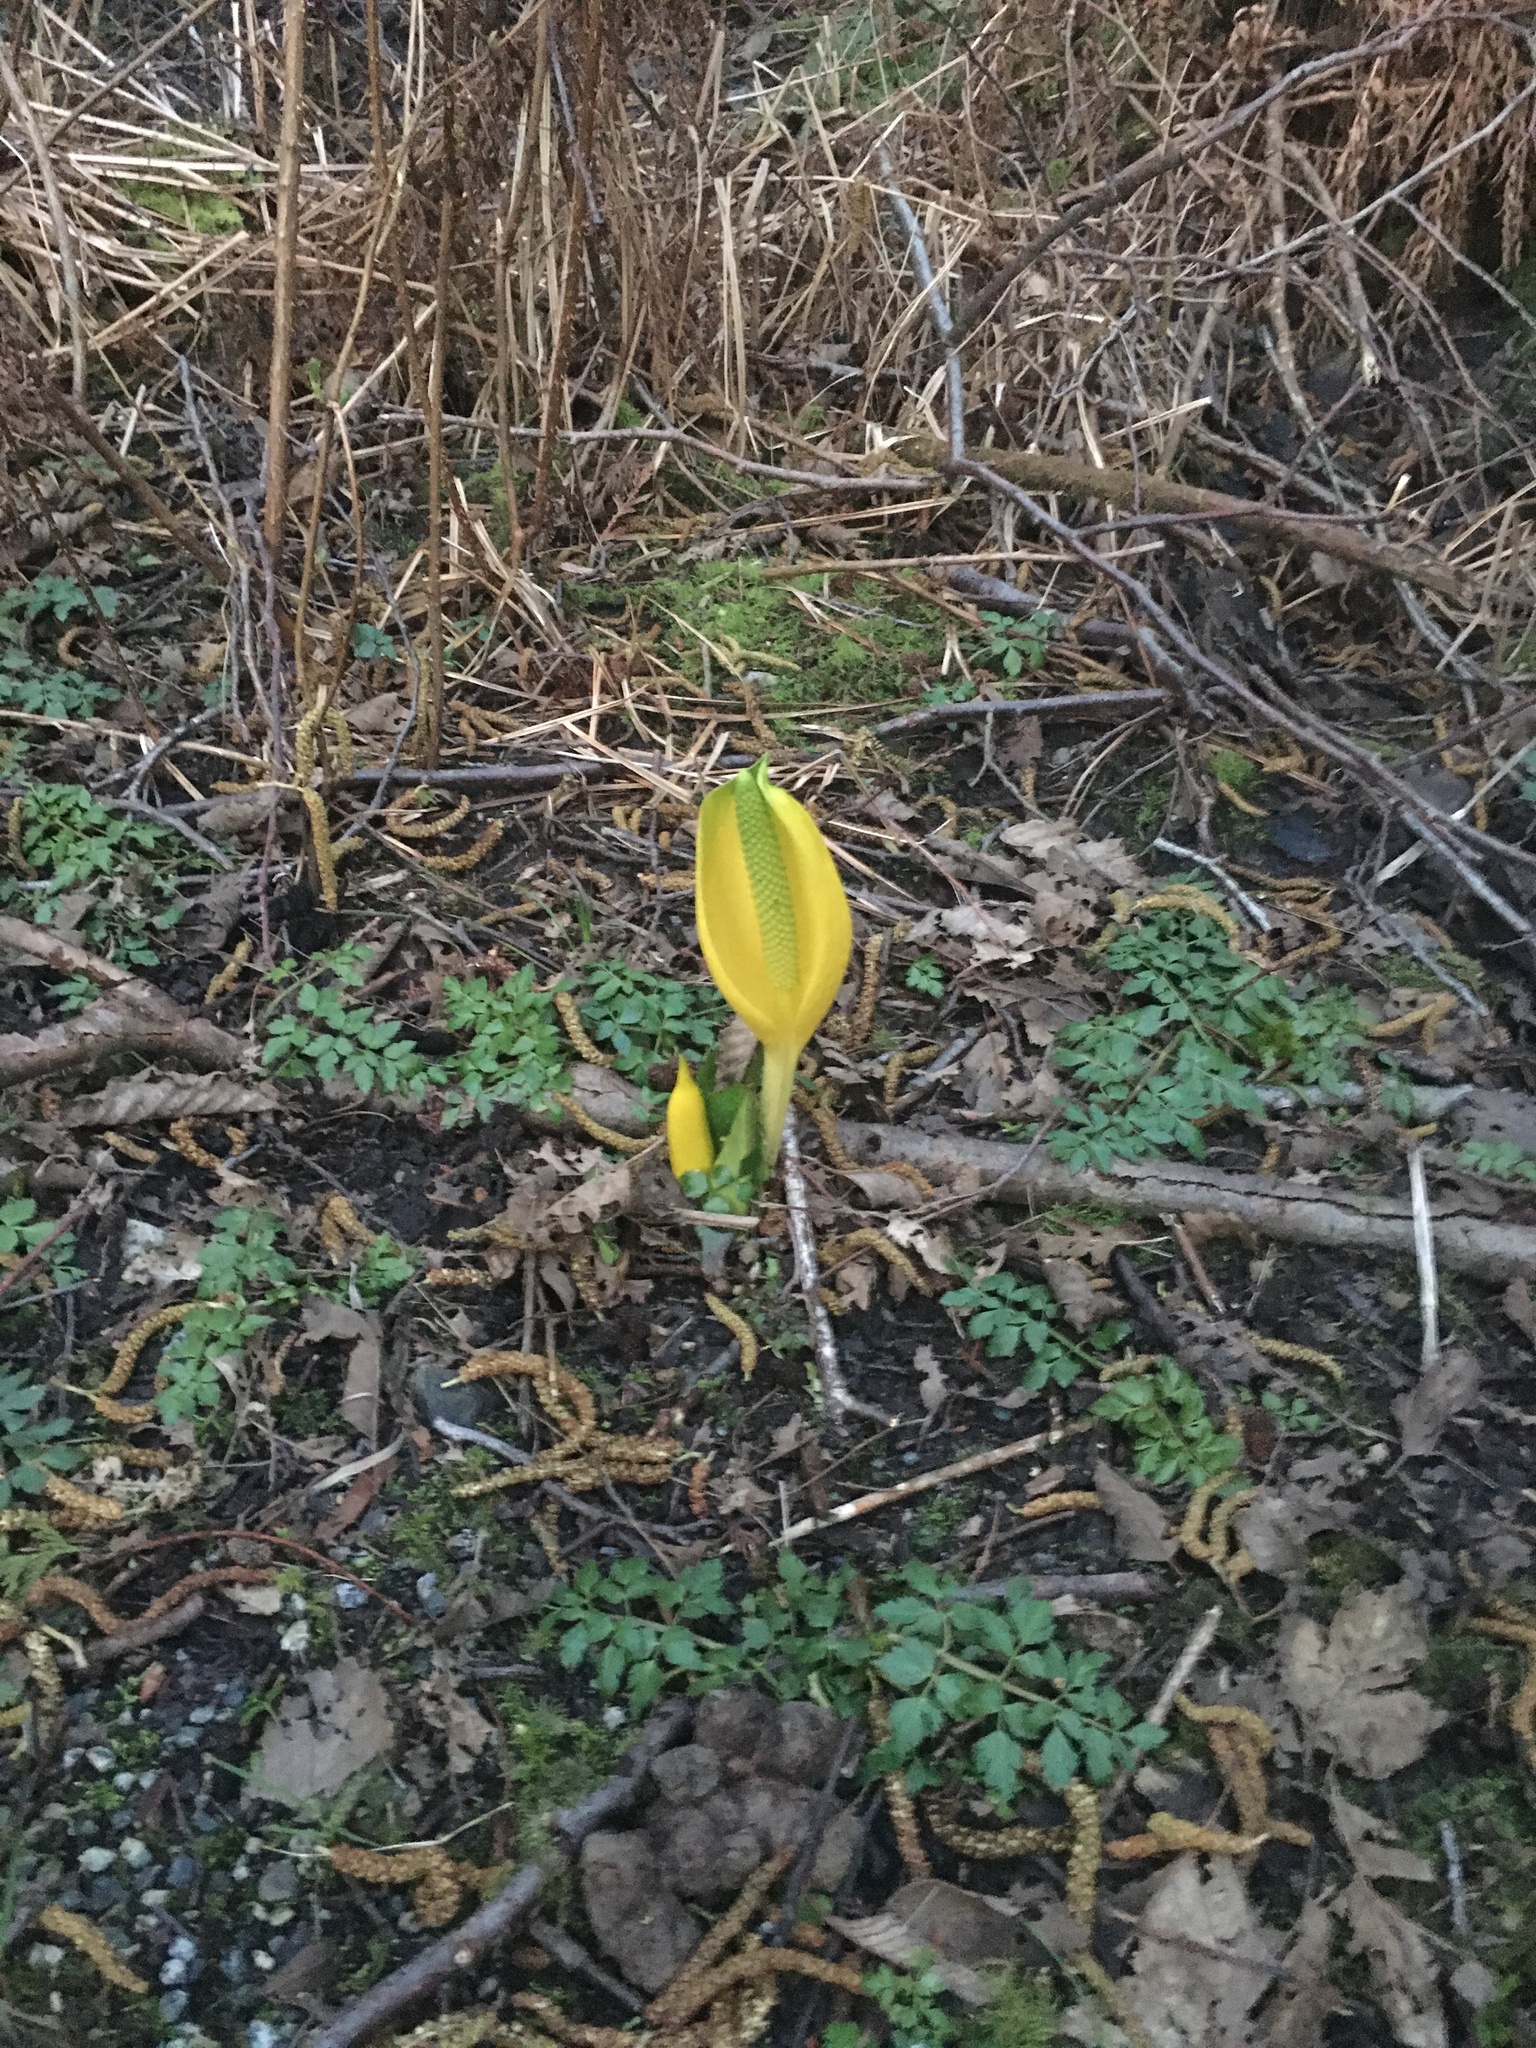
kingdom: Plantae
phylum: Tracheophyta
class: Liliopsida
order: Alismatales
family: Araceae
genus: Lysichiton
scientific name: Lysichiton americanus
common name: American skunk cabbage
